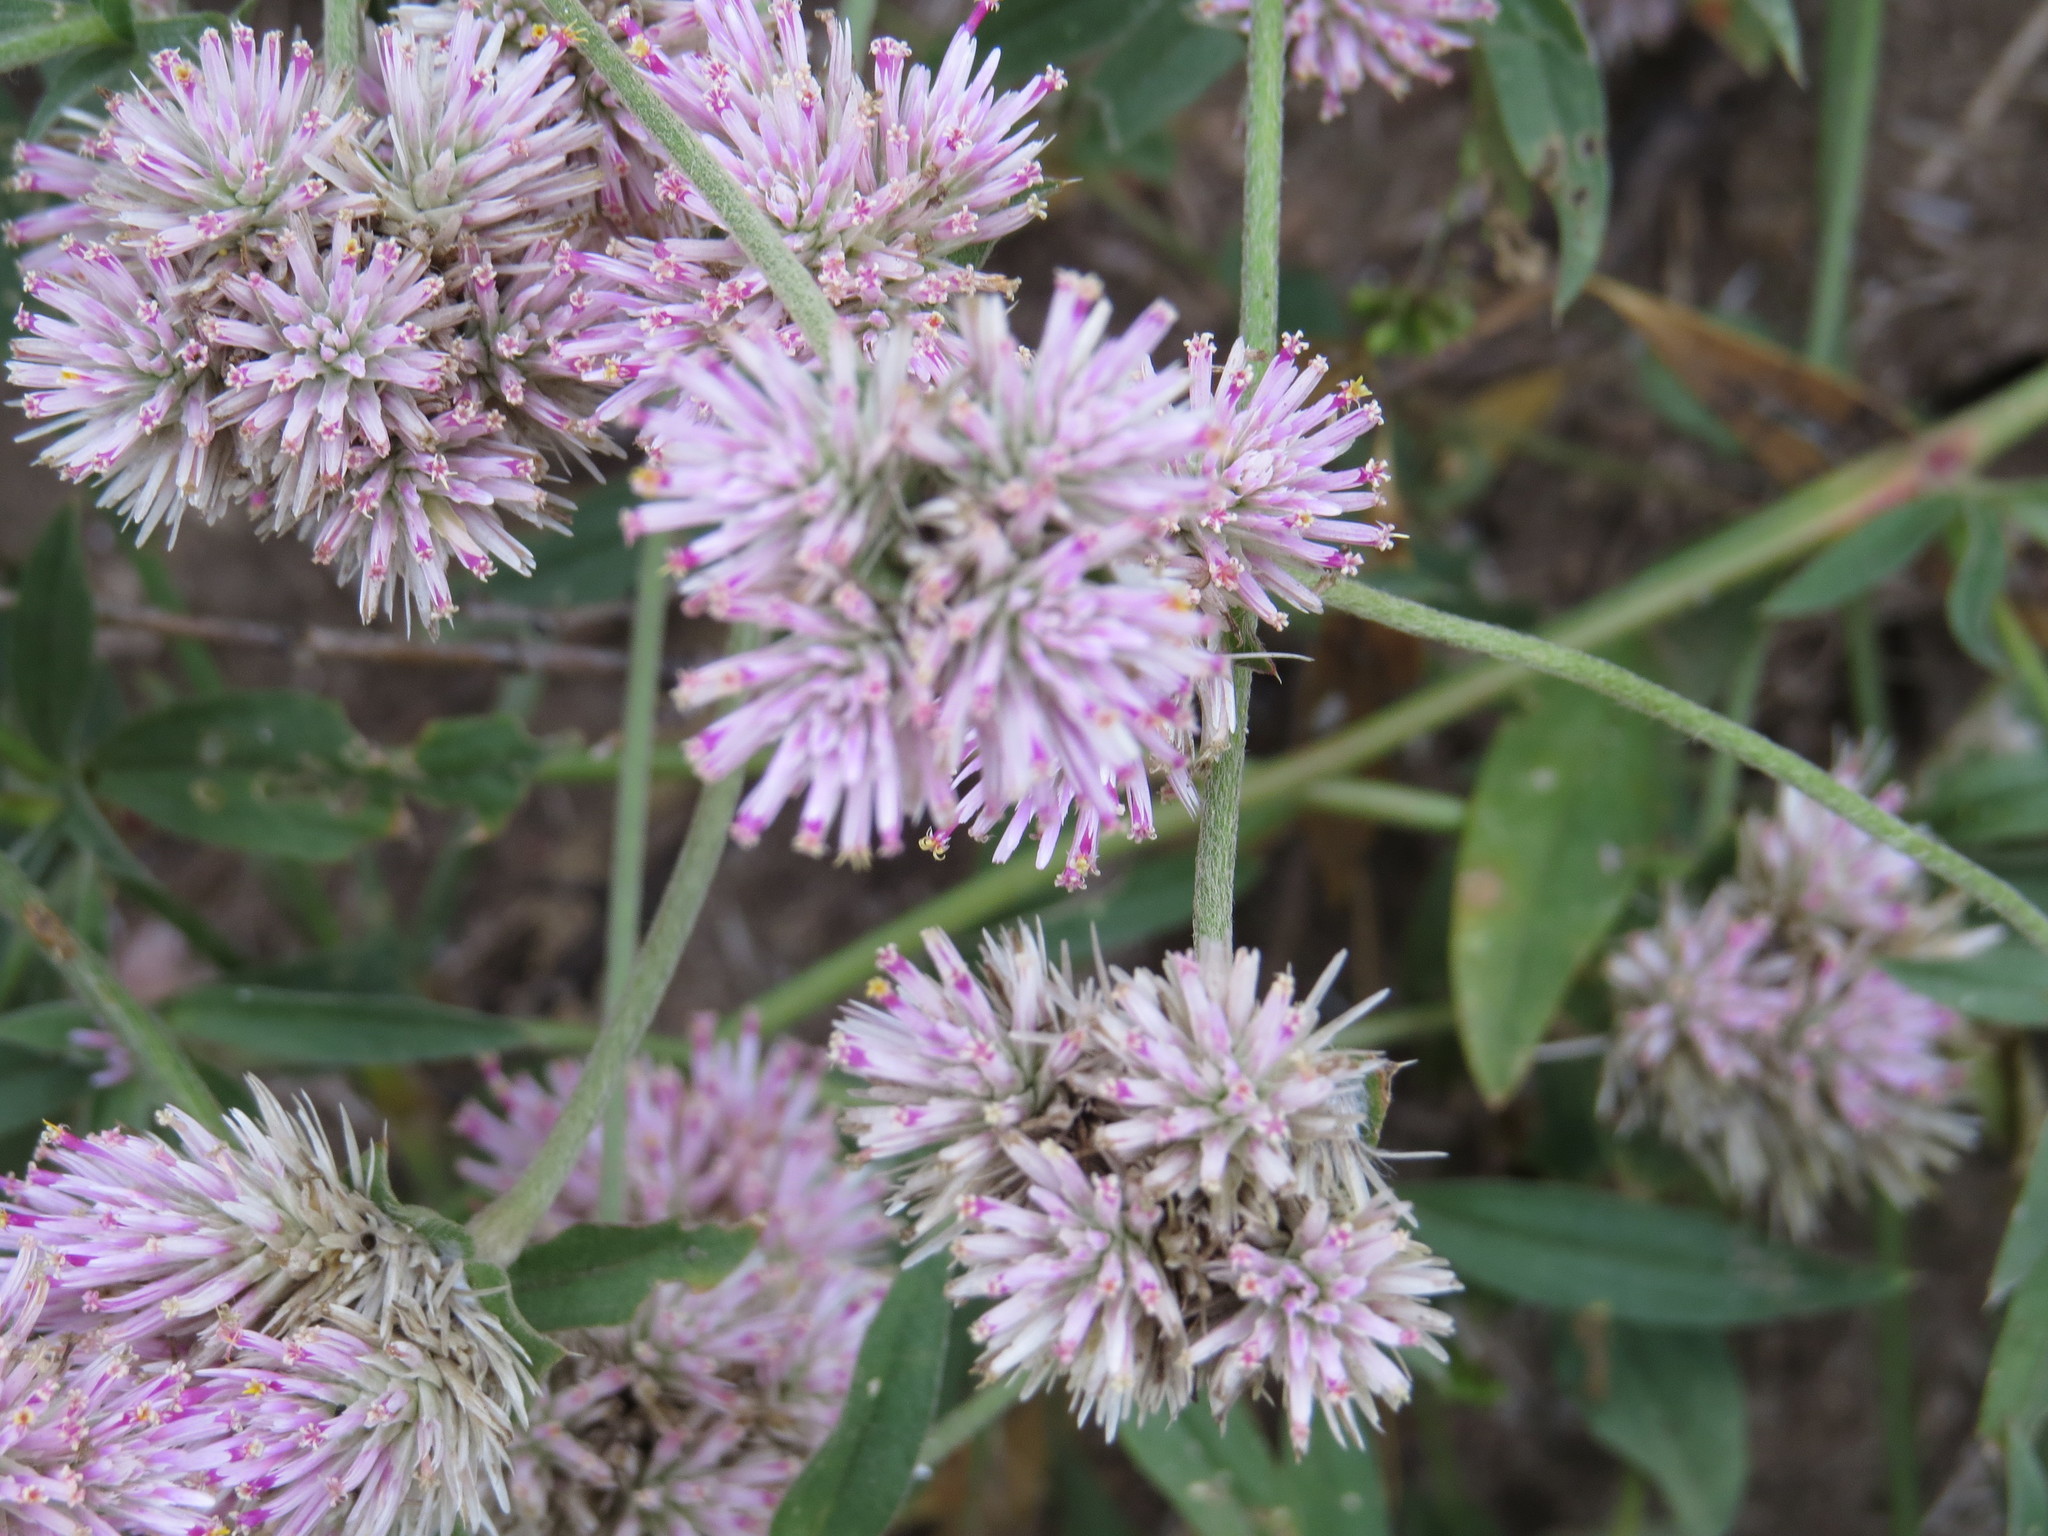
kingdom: Plantae
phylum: Tracheophyta
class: Magnoliopsida
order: Caryophyllales
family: Amaranthaceae
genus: Gomphrena
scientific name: Gomphrena pulchella
